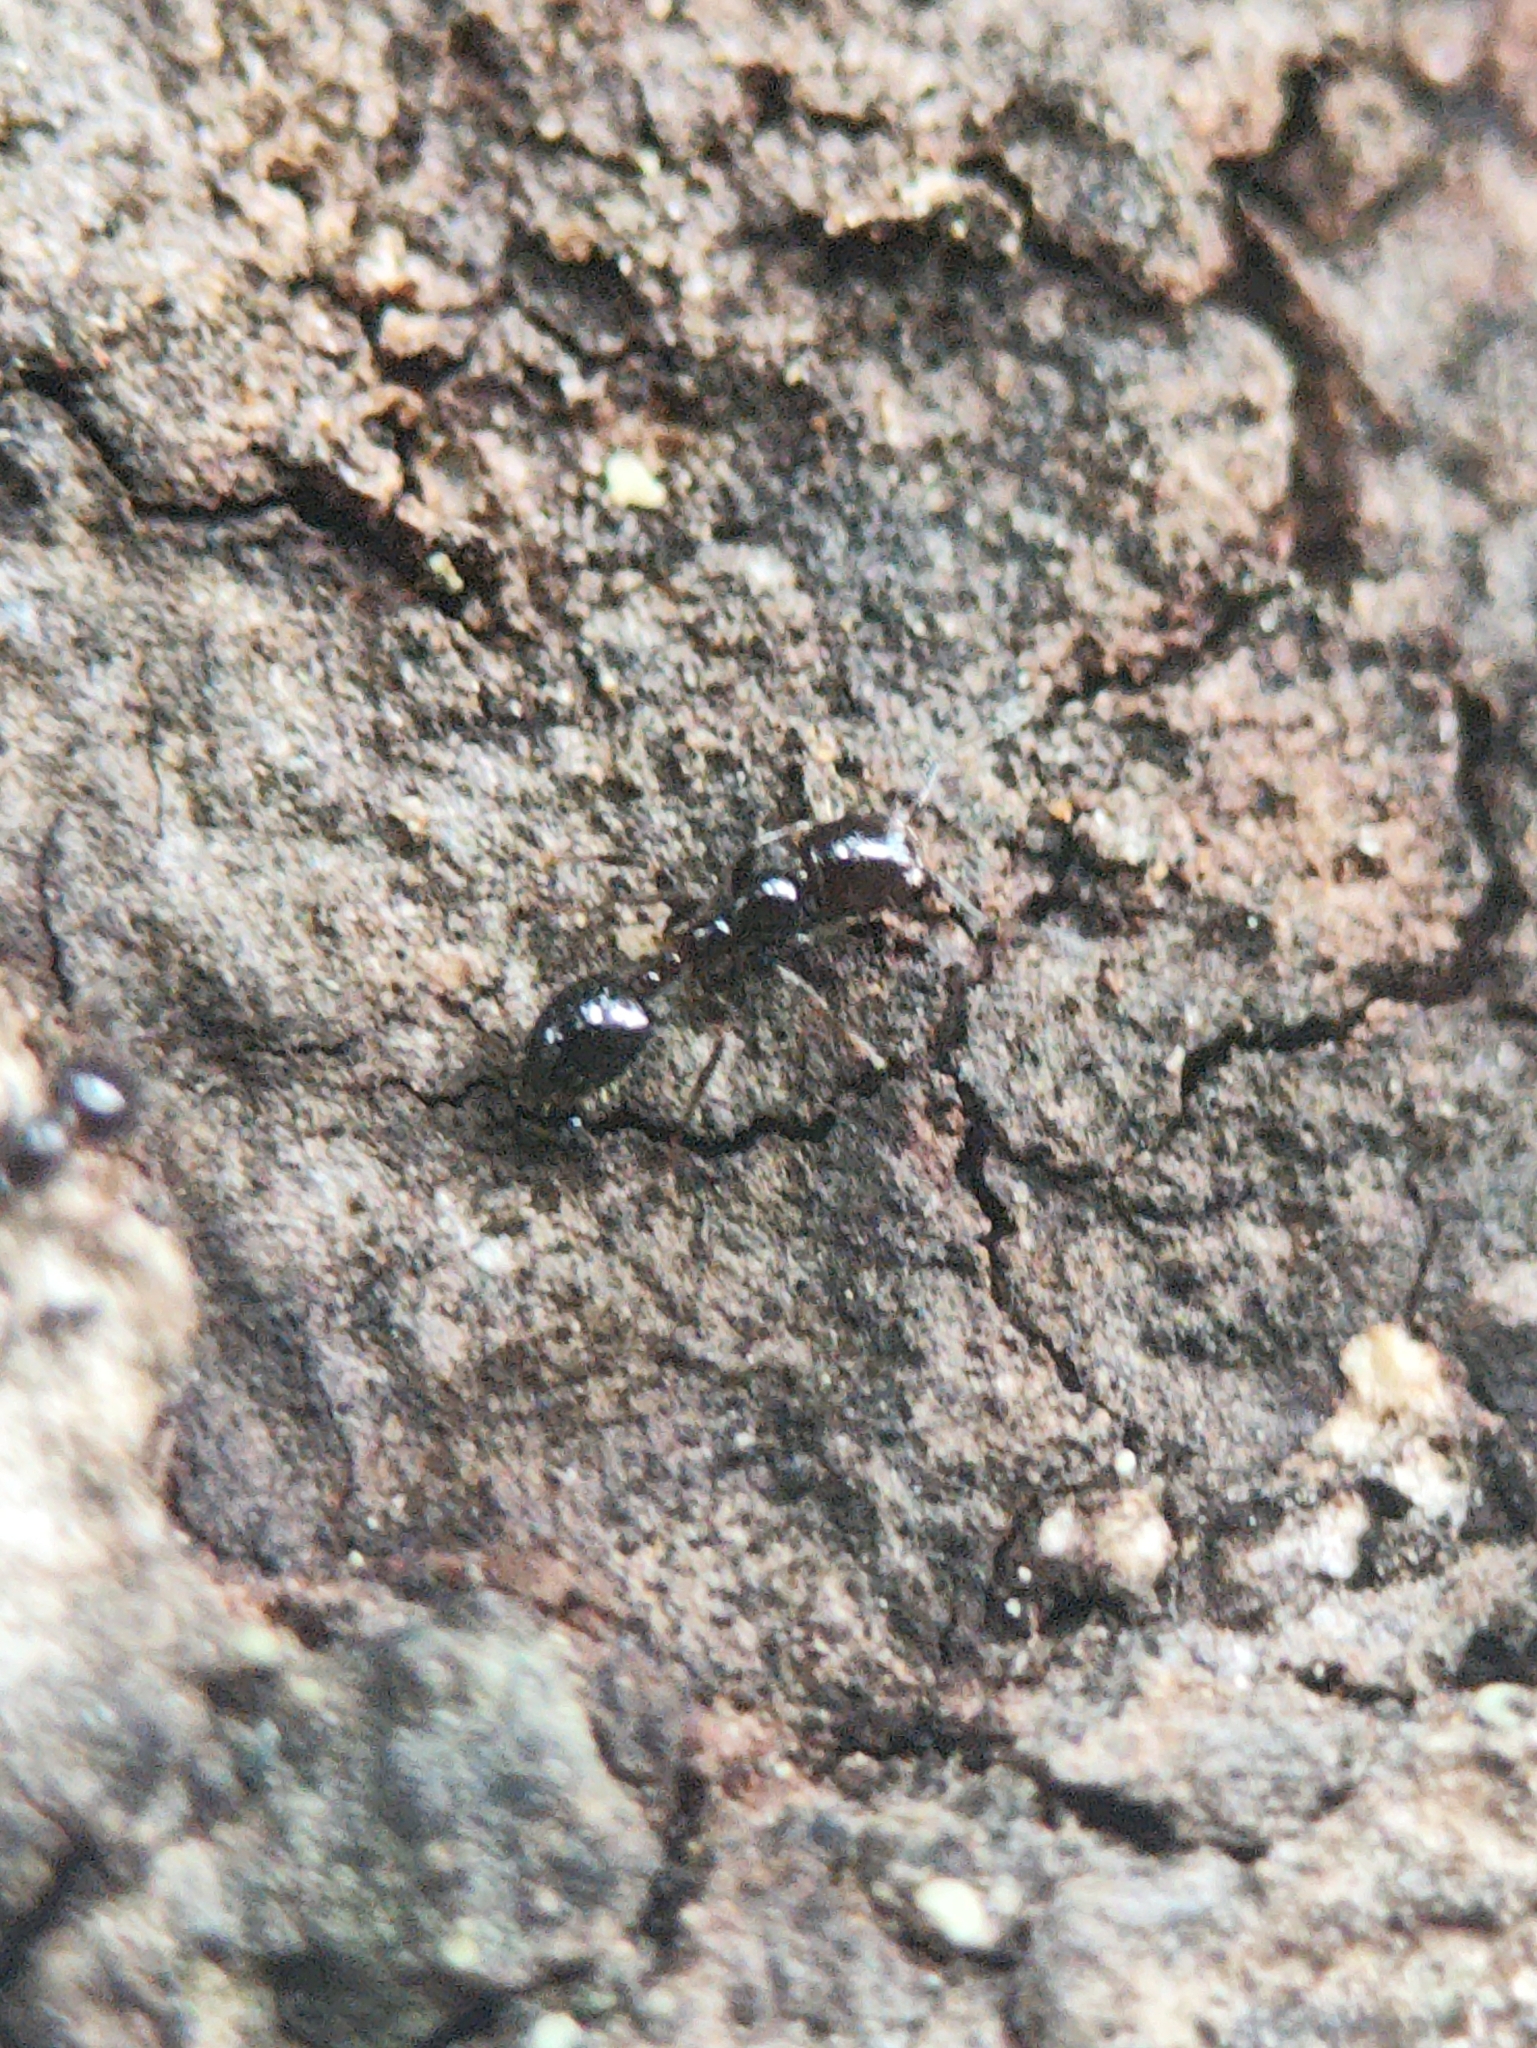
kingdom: Animalia
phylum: Arthropoda
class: Insecta
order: Hymenoptera
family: Formicidae
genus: Monomorium
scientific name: Monomorium carbonarium
